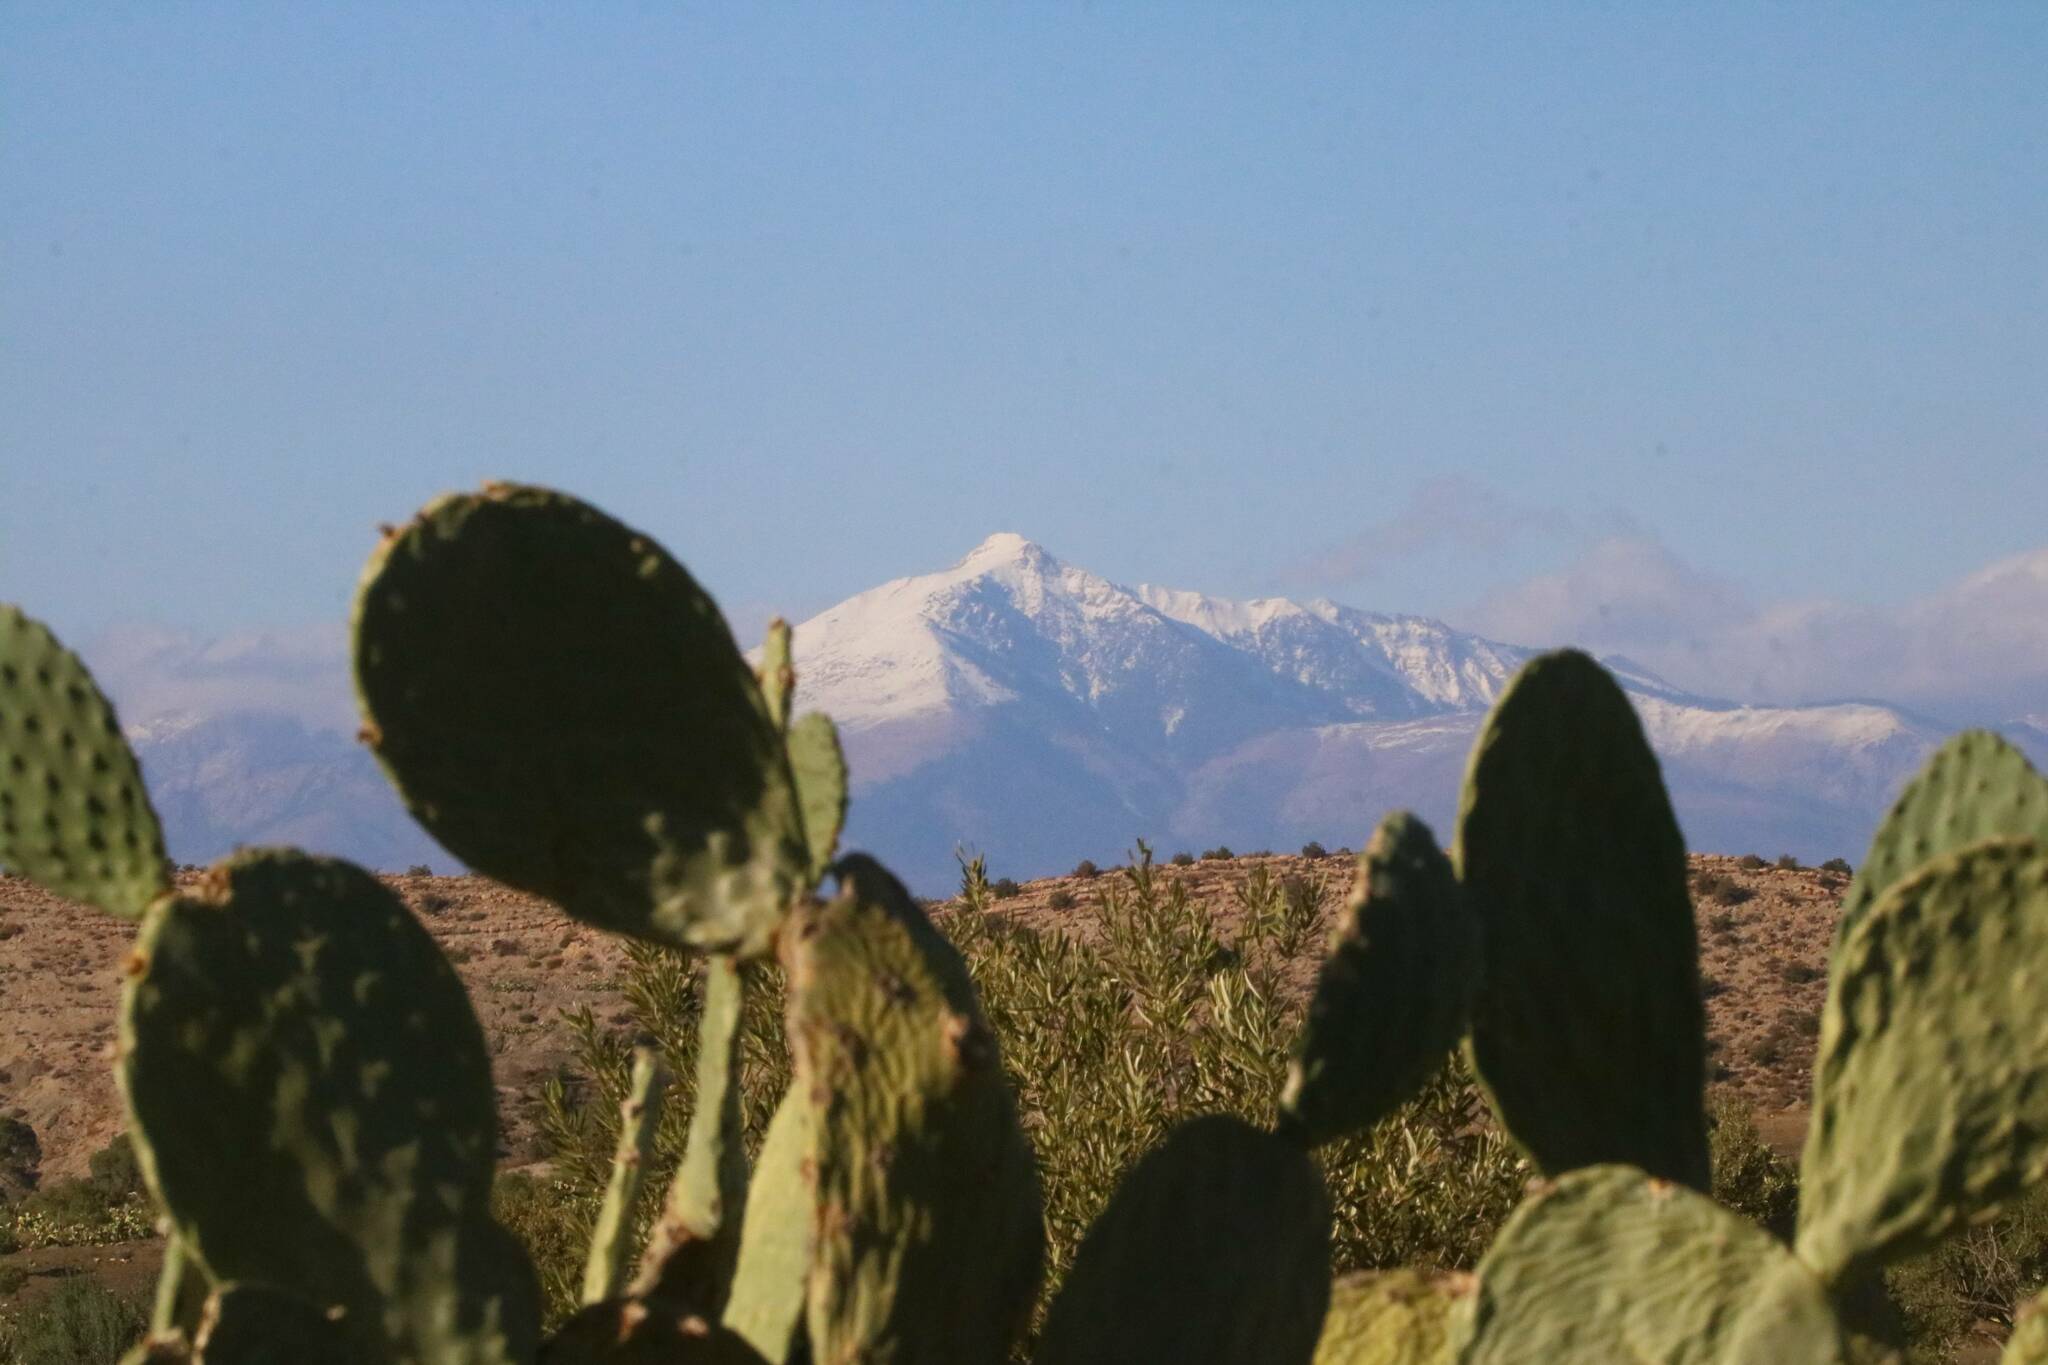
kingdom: Plantae
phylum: Tracheophyta
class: Magnoliopsida
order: Caryophyllales
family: Cactaceae
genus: Opuntia
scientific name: Opuntia ficus-indica
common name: Barbary fig
